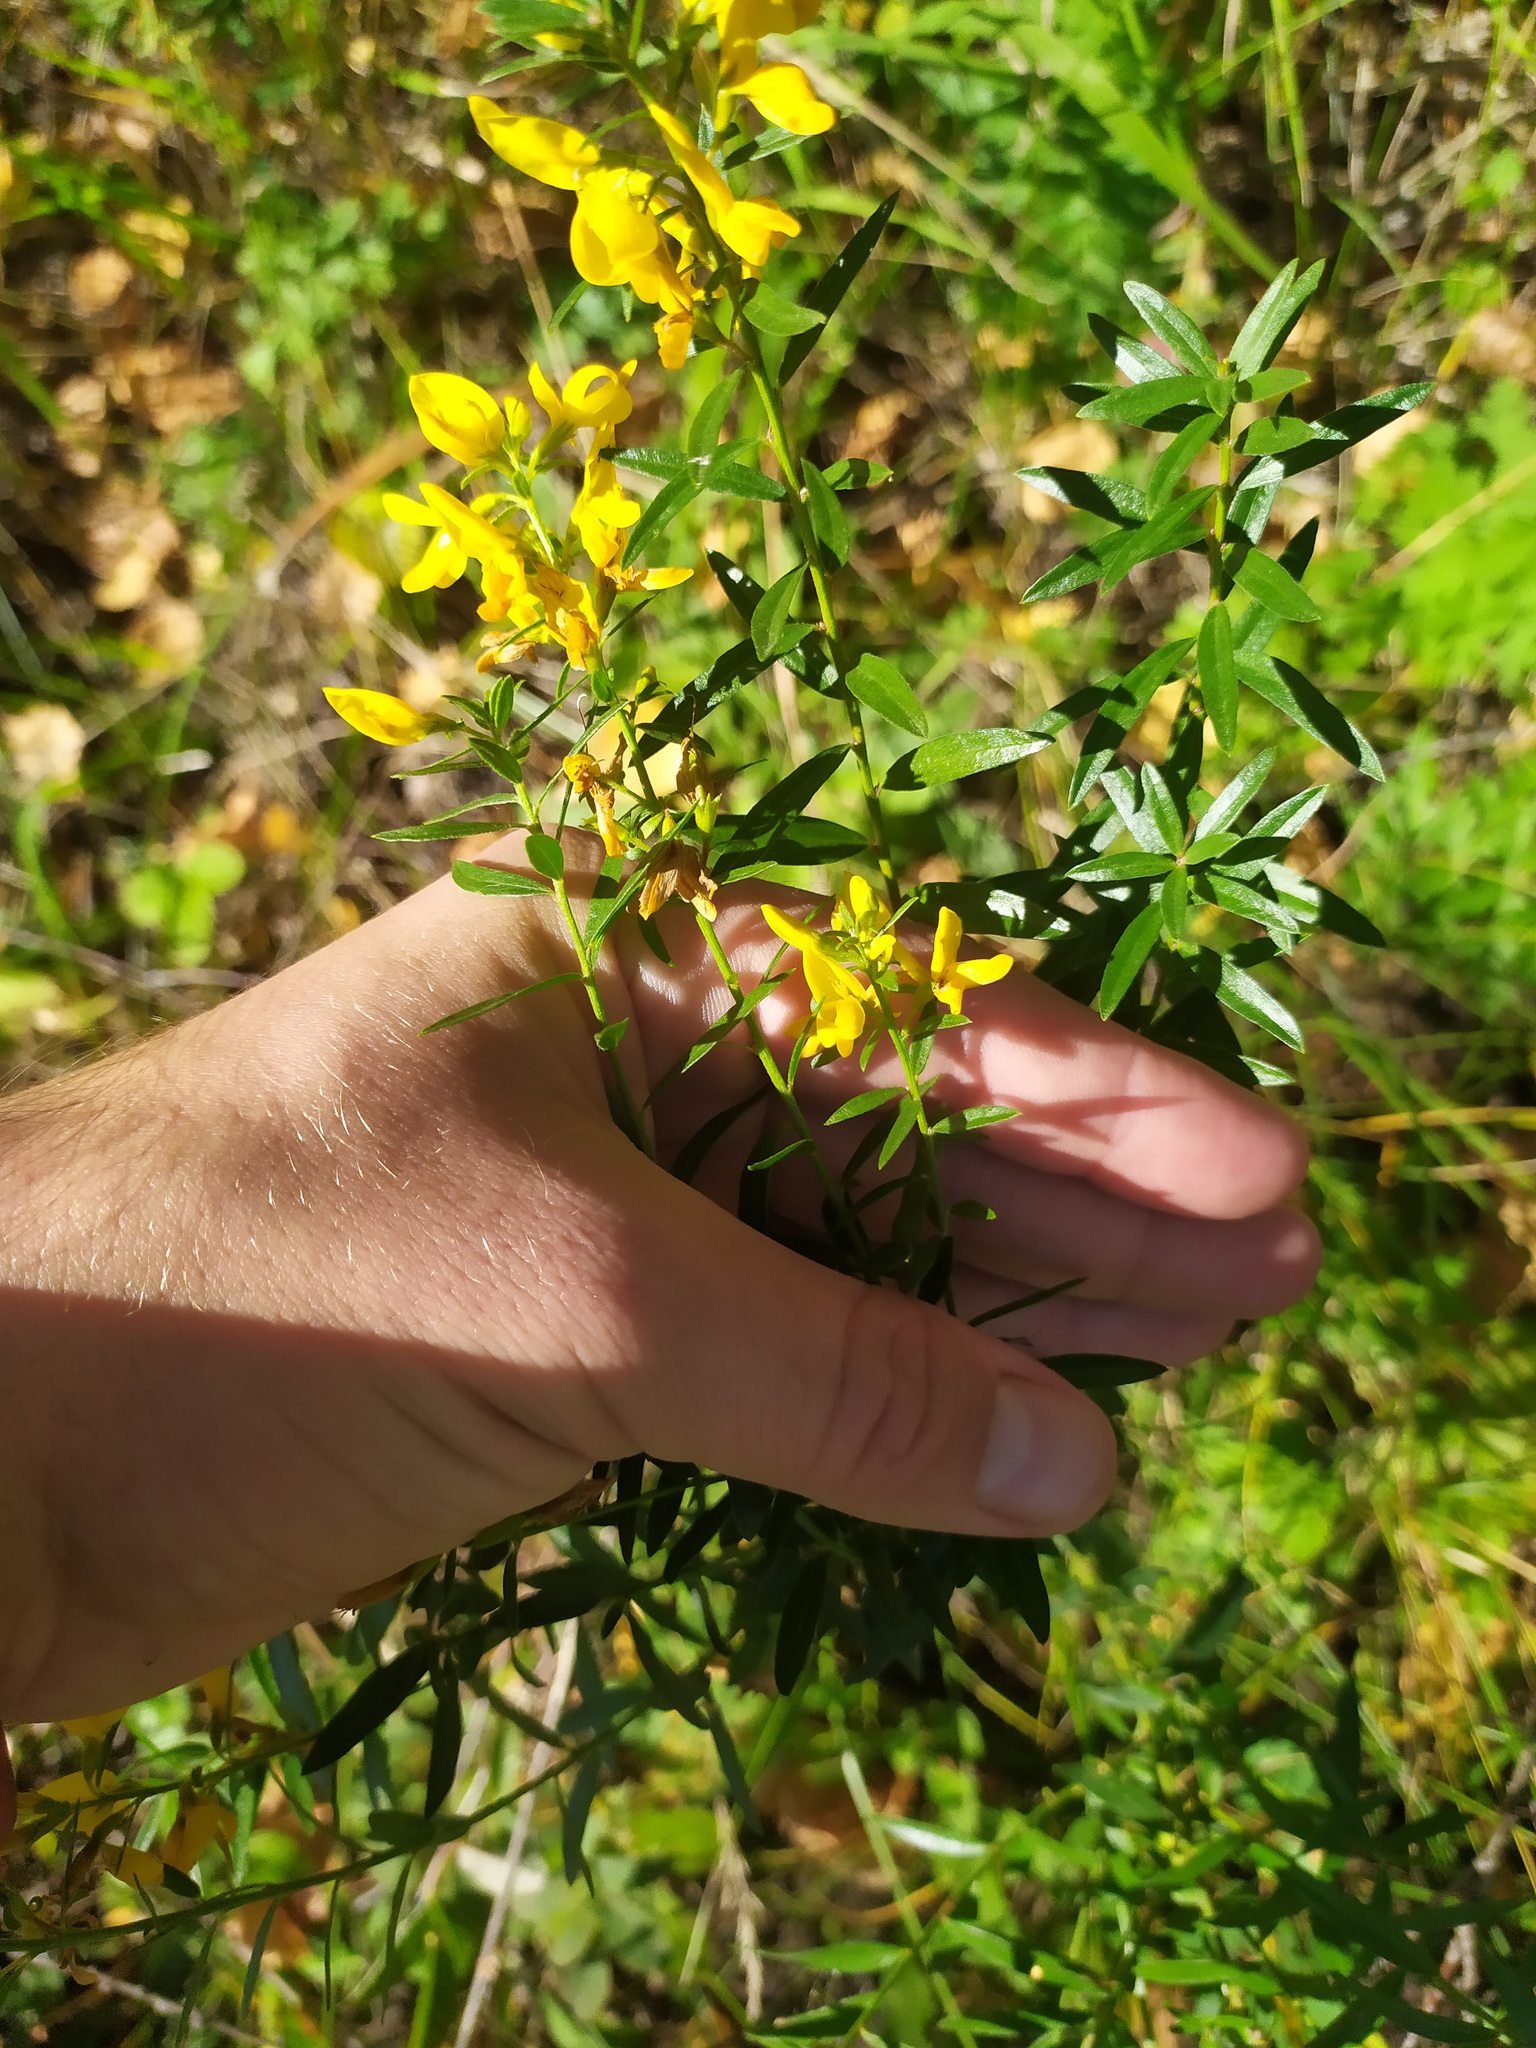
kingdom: Plantae
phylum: Tracheophyta
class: Magnoliopsida
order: Fabales
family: Fabaceae
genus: Genista
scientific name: Genista tinctoria
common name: Dyer's greenweed
